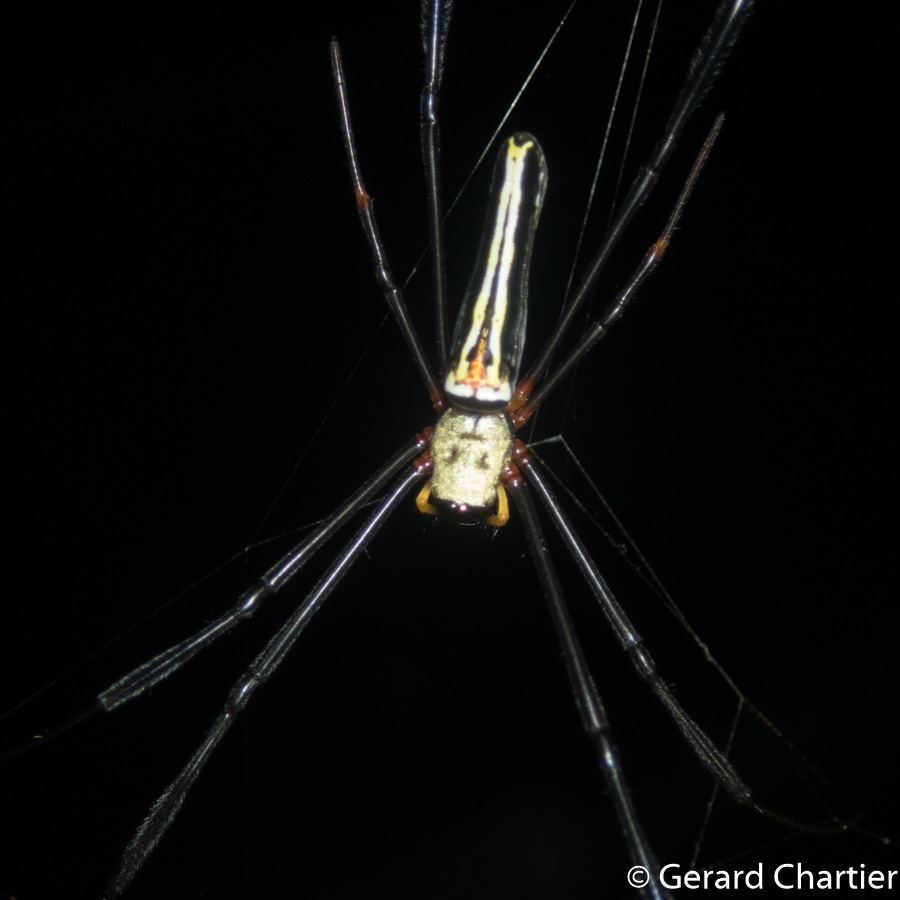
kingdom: Animalia
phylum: Arthropoda
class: Arachnida
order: Araneae
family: Araneidae
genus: Nephila
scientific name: Nephila pilipes
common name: Giant golden orb weaver
